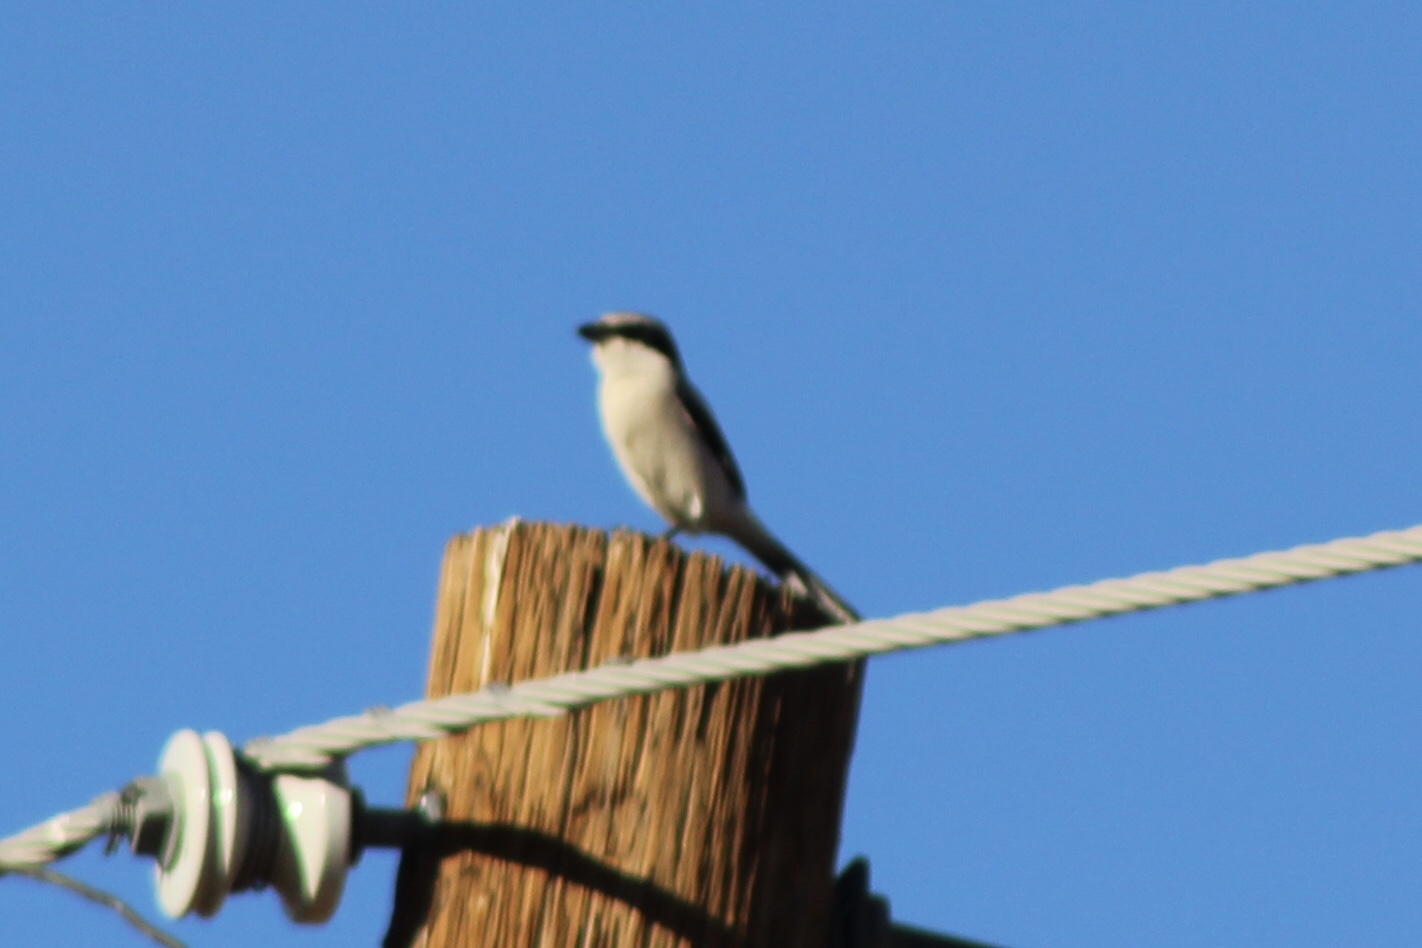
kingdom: Animalia
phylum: Chordata
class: Aves
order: Passeriformes
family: Laniidae
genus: Lanius
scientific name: Lanius ludovicianus
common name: Loggerhead shrike
